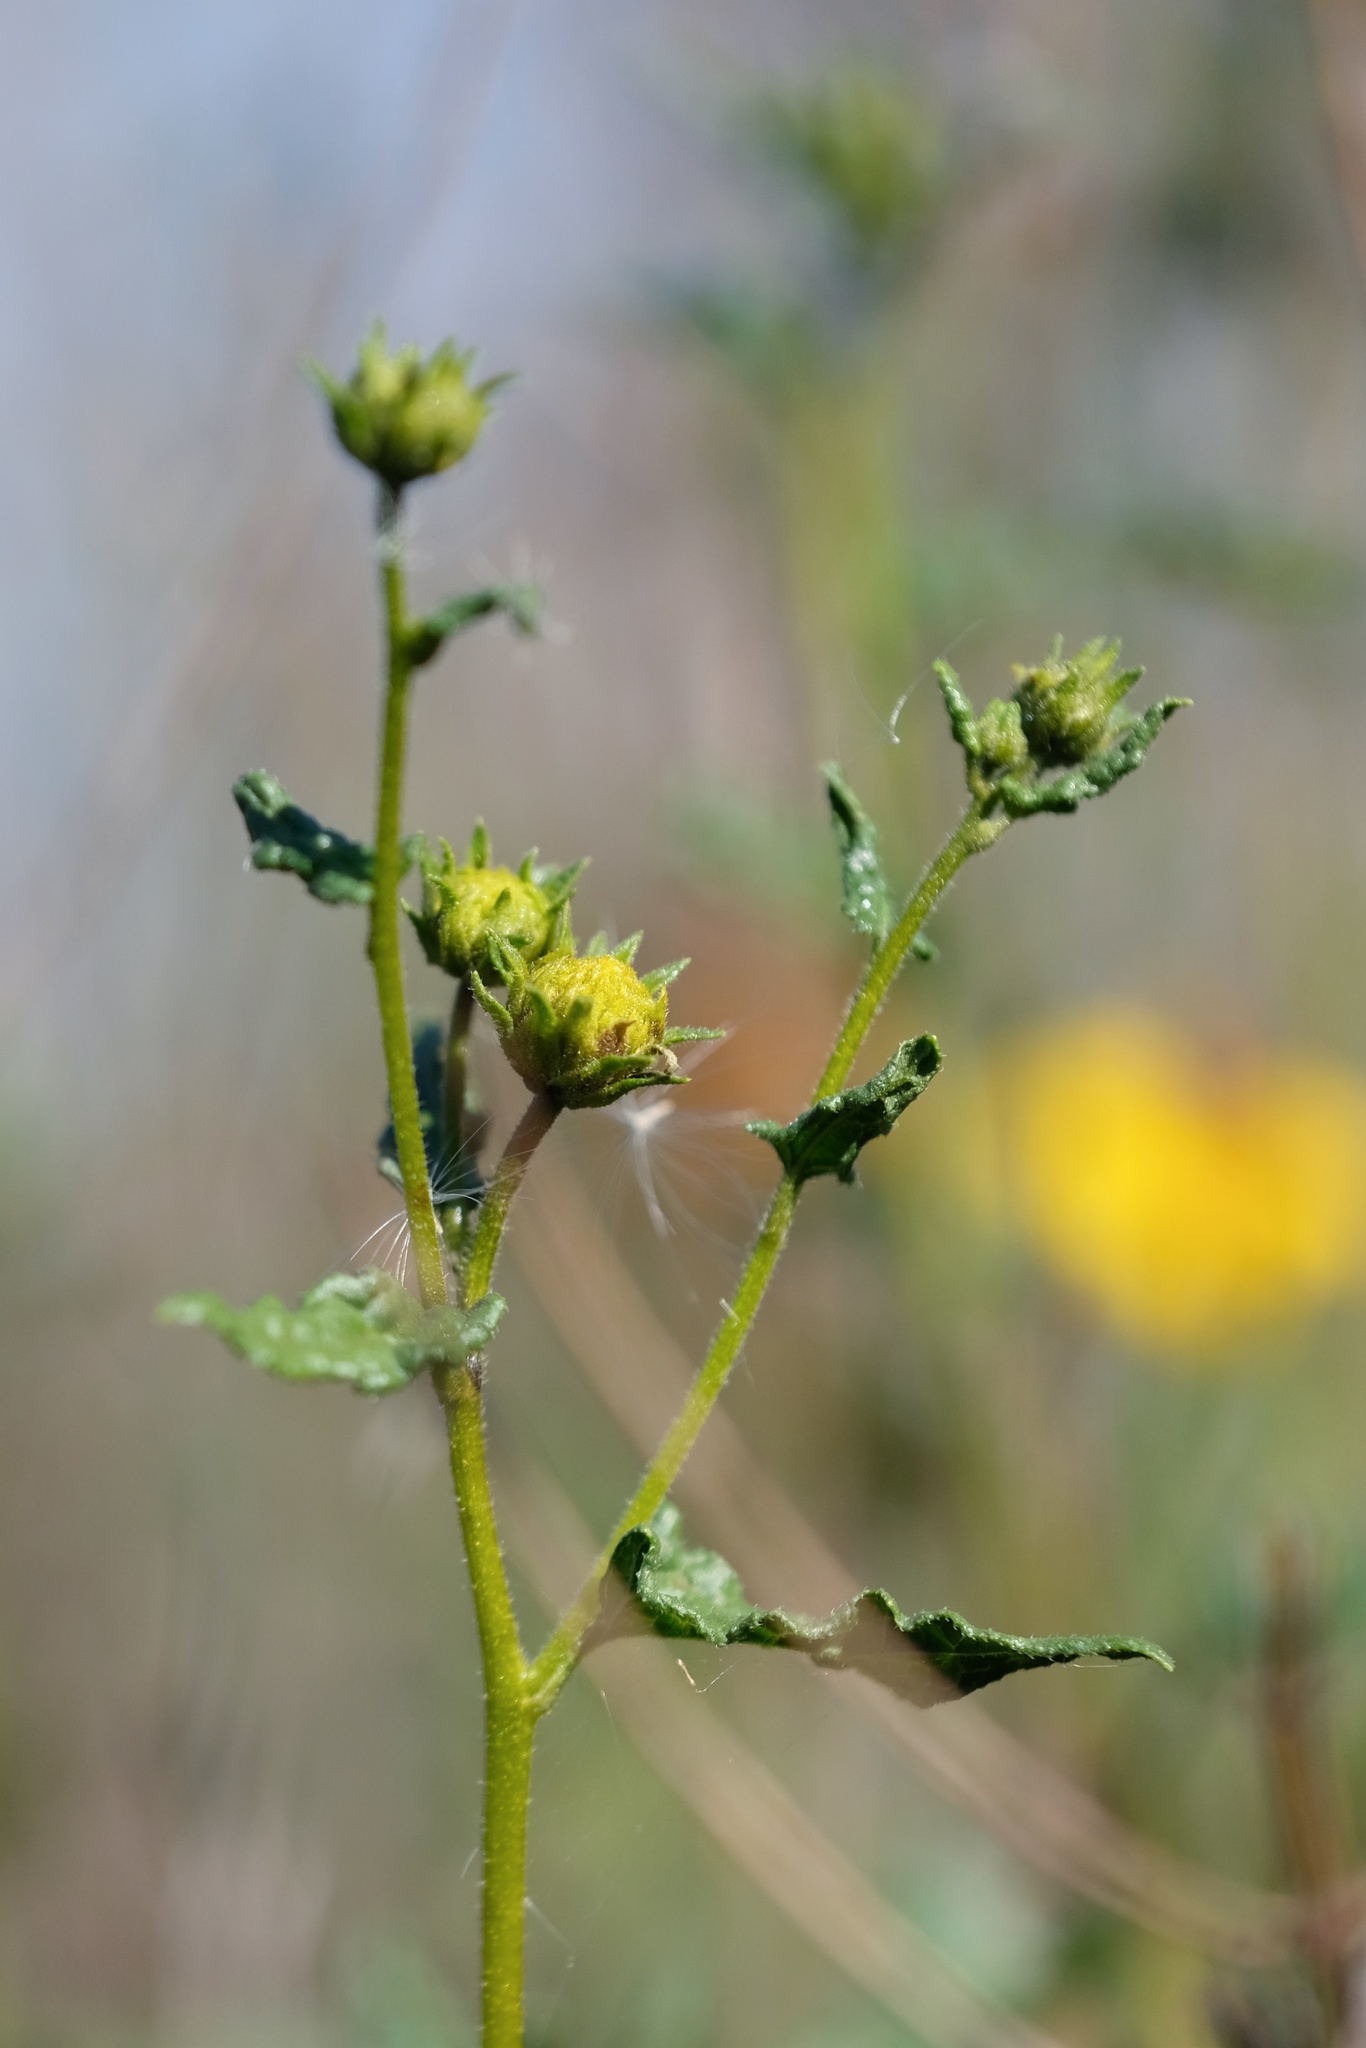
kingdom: Plantae
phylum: Tracheophyta
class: Magnoliopsida
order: Asterales
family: Asteraceae
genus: Bahiopsis
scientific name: Bahiopsis laciniata
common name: San diego county viguiera
